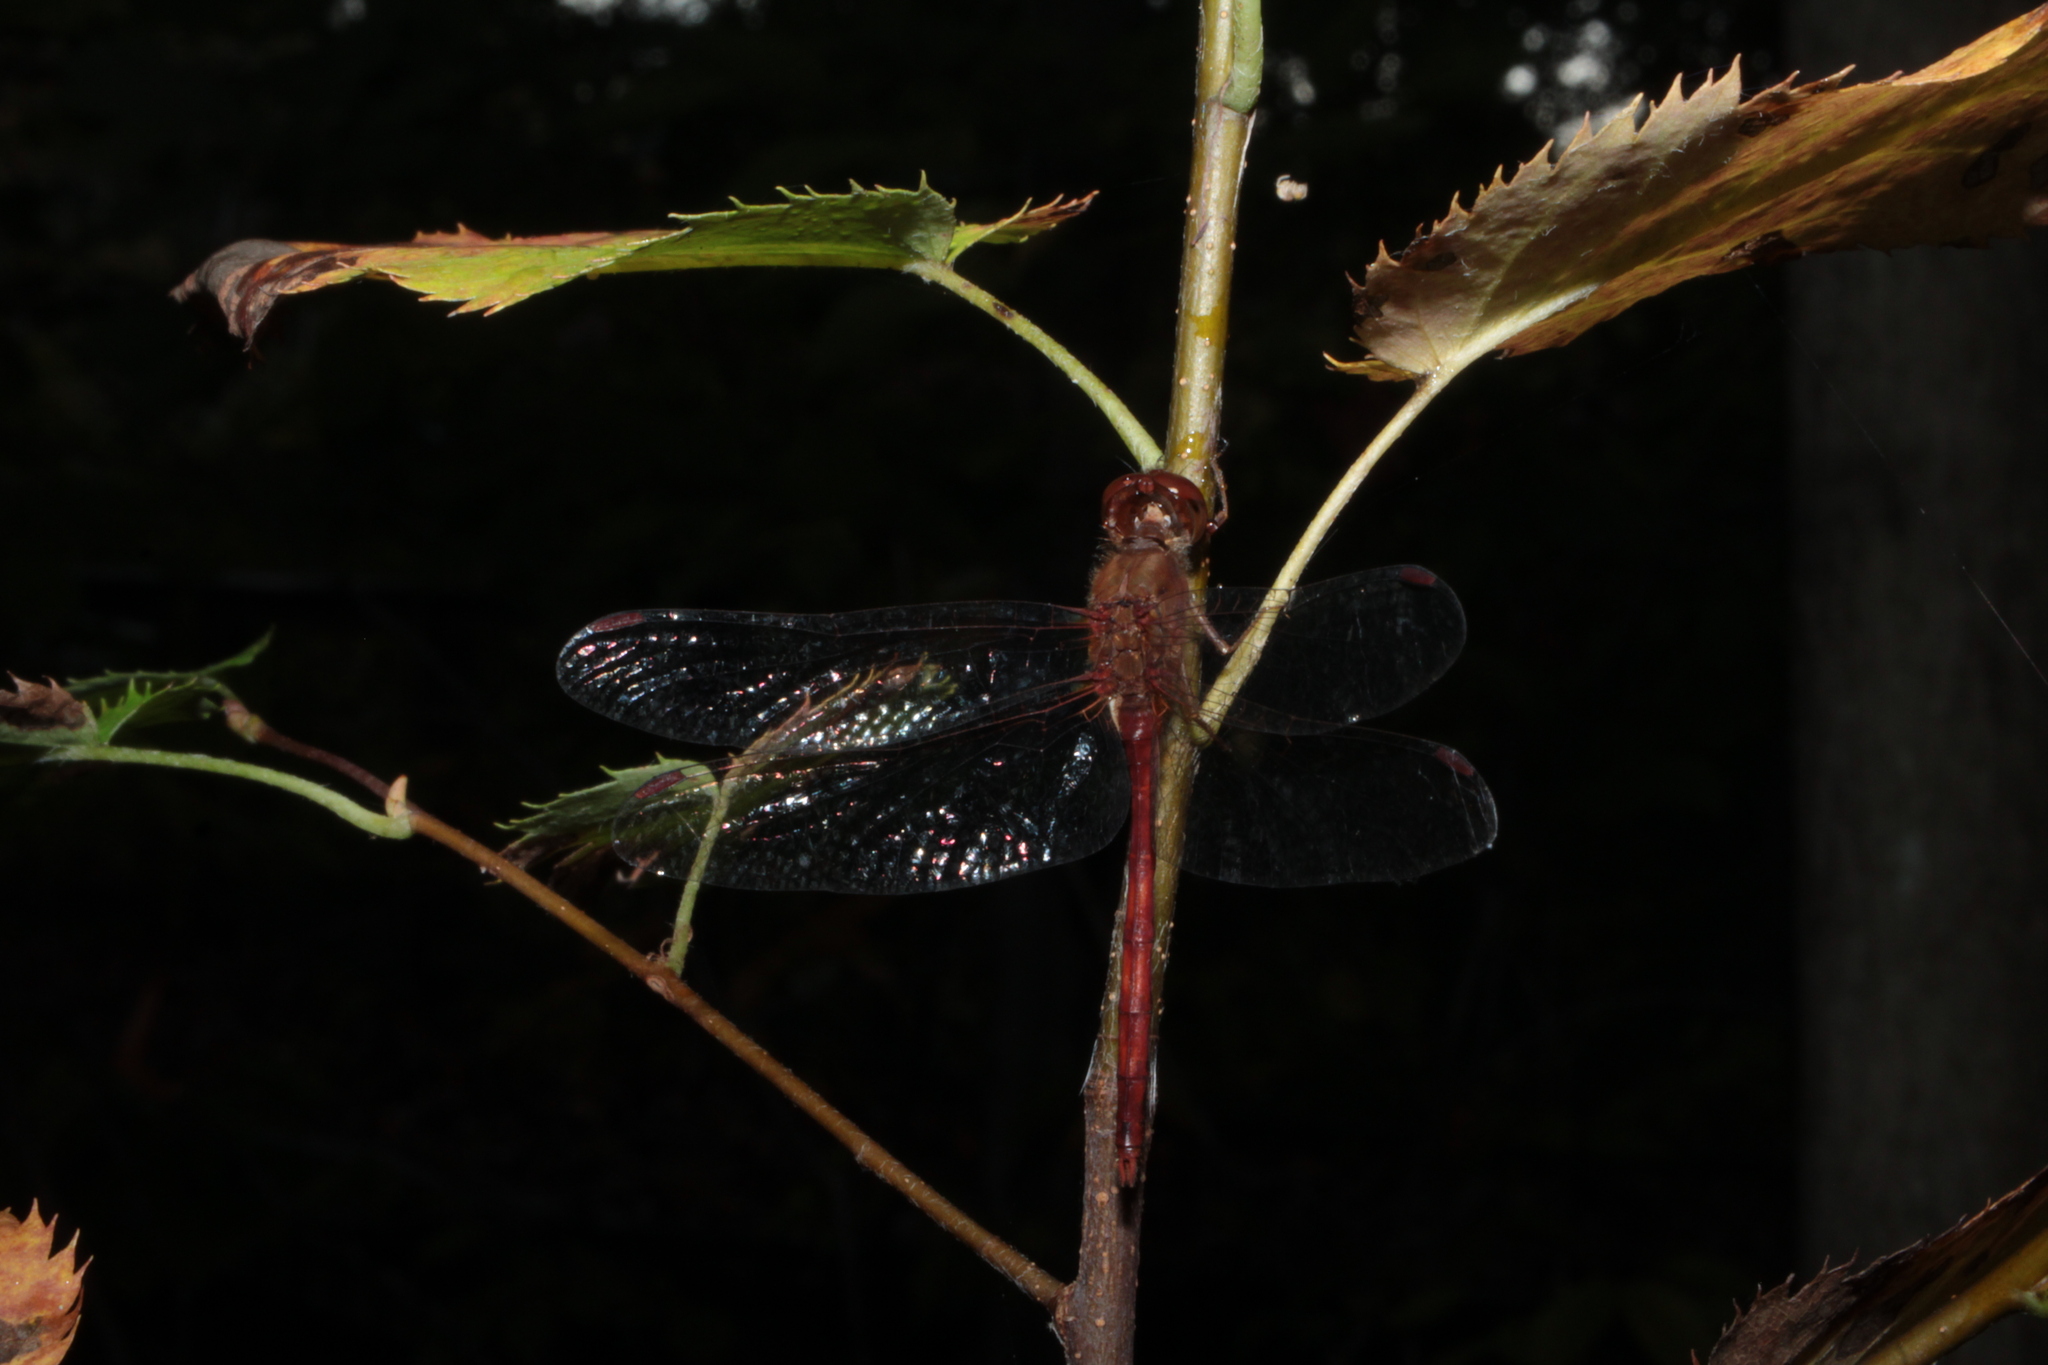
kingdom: Animalia
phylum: Arthropoda
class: Insecta
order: Odonata
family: Libellulidae
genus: Sympetrum
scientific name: Sympetrum vicinum
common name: Autumn meadowhawk
